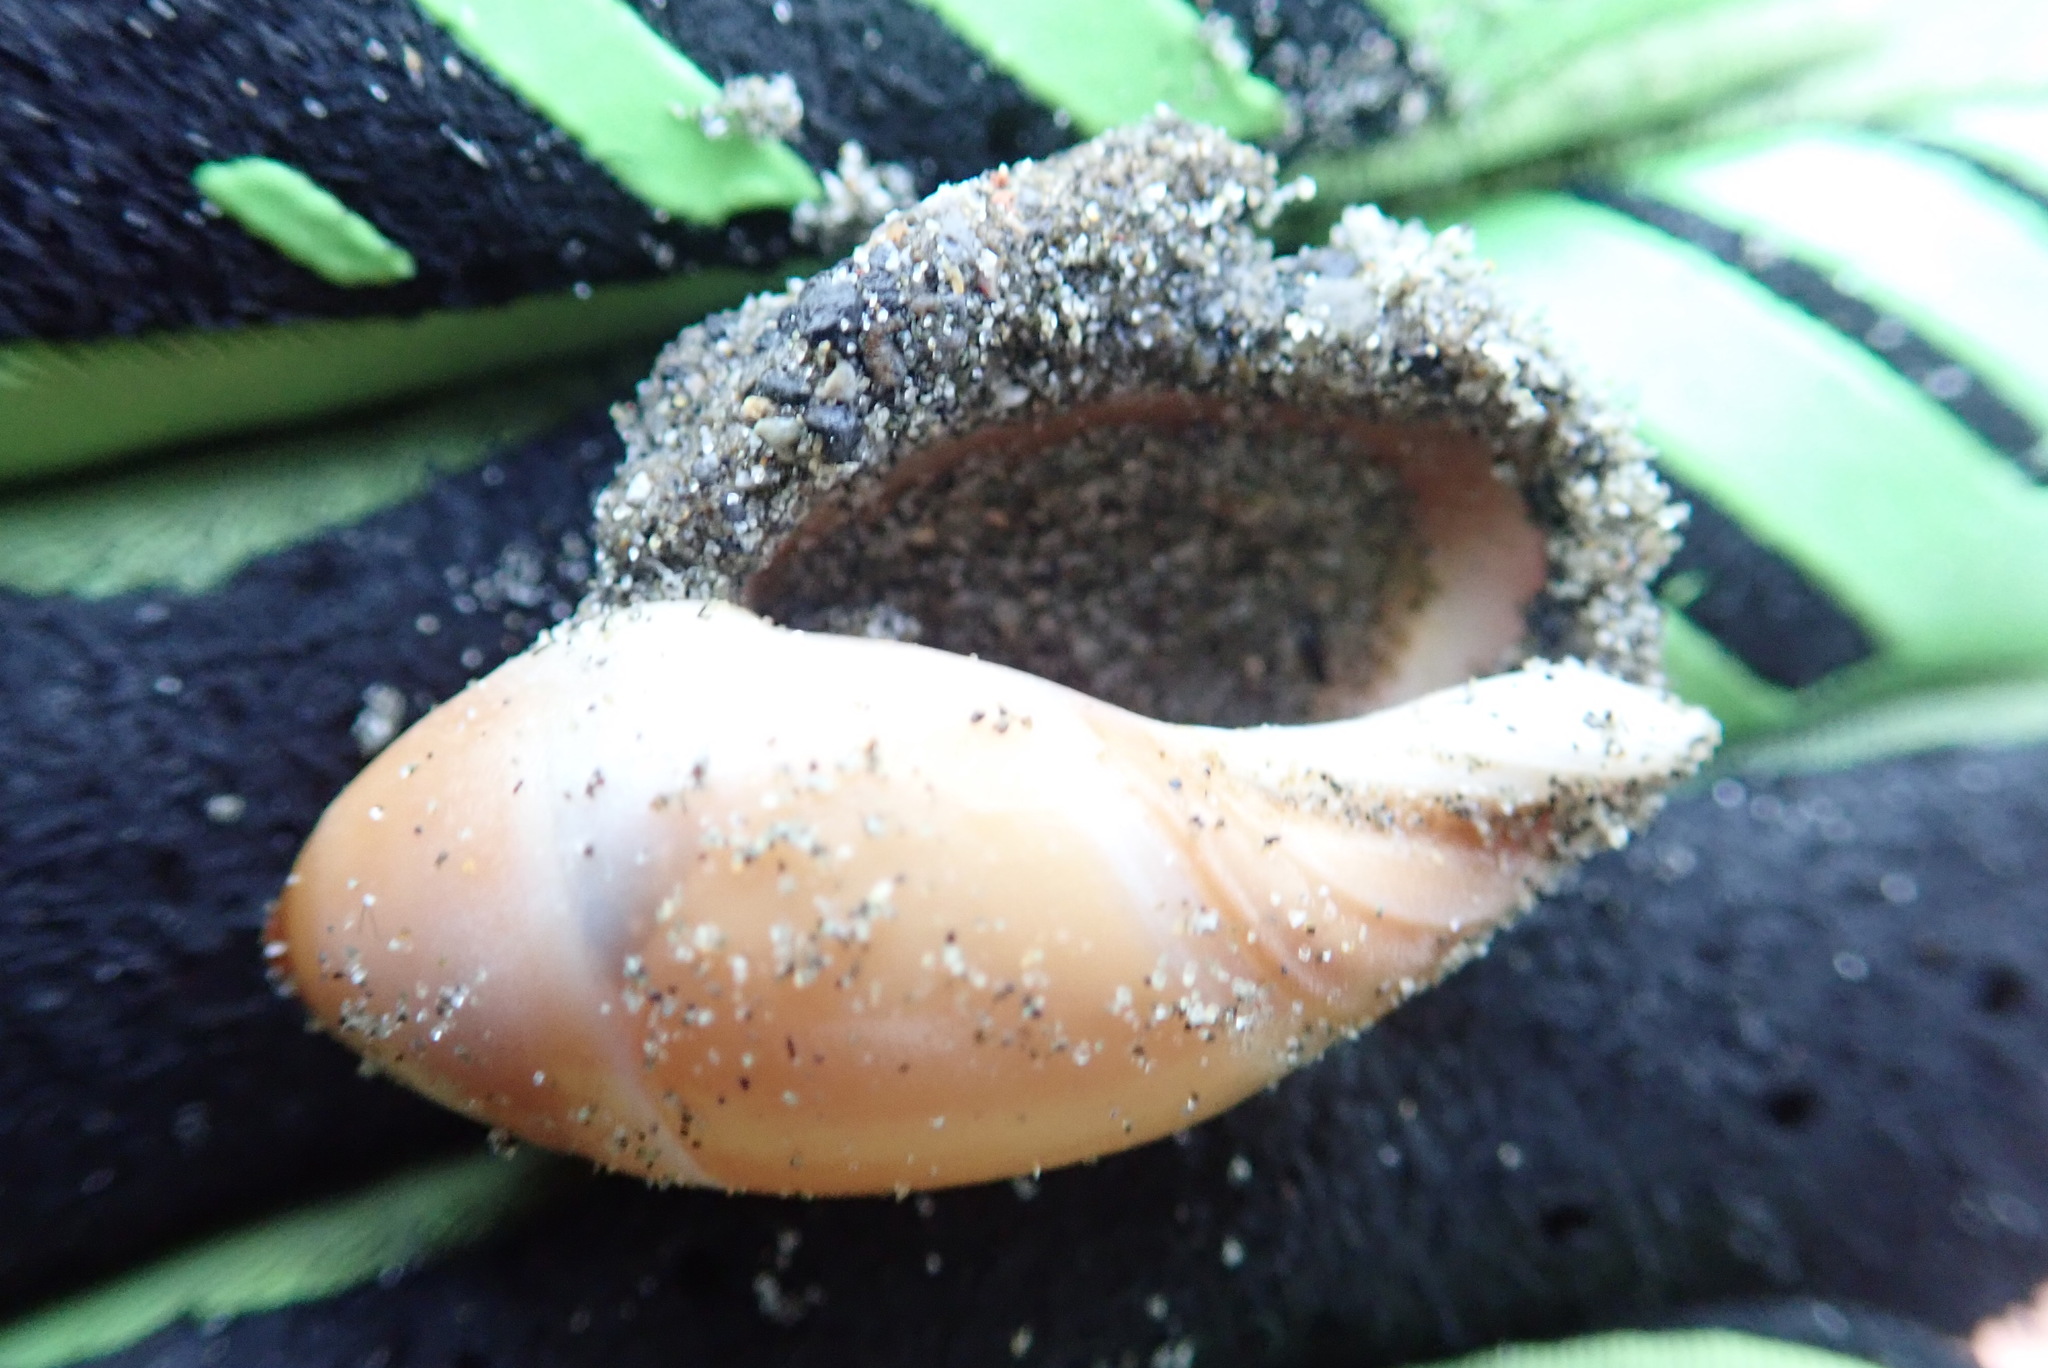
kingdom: Animalia
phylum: Mollusca
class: Gastropoda
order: Neogastropoda
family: Ancillariidae
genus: Amalda
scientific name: Amalda mucronata
